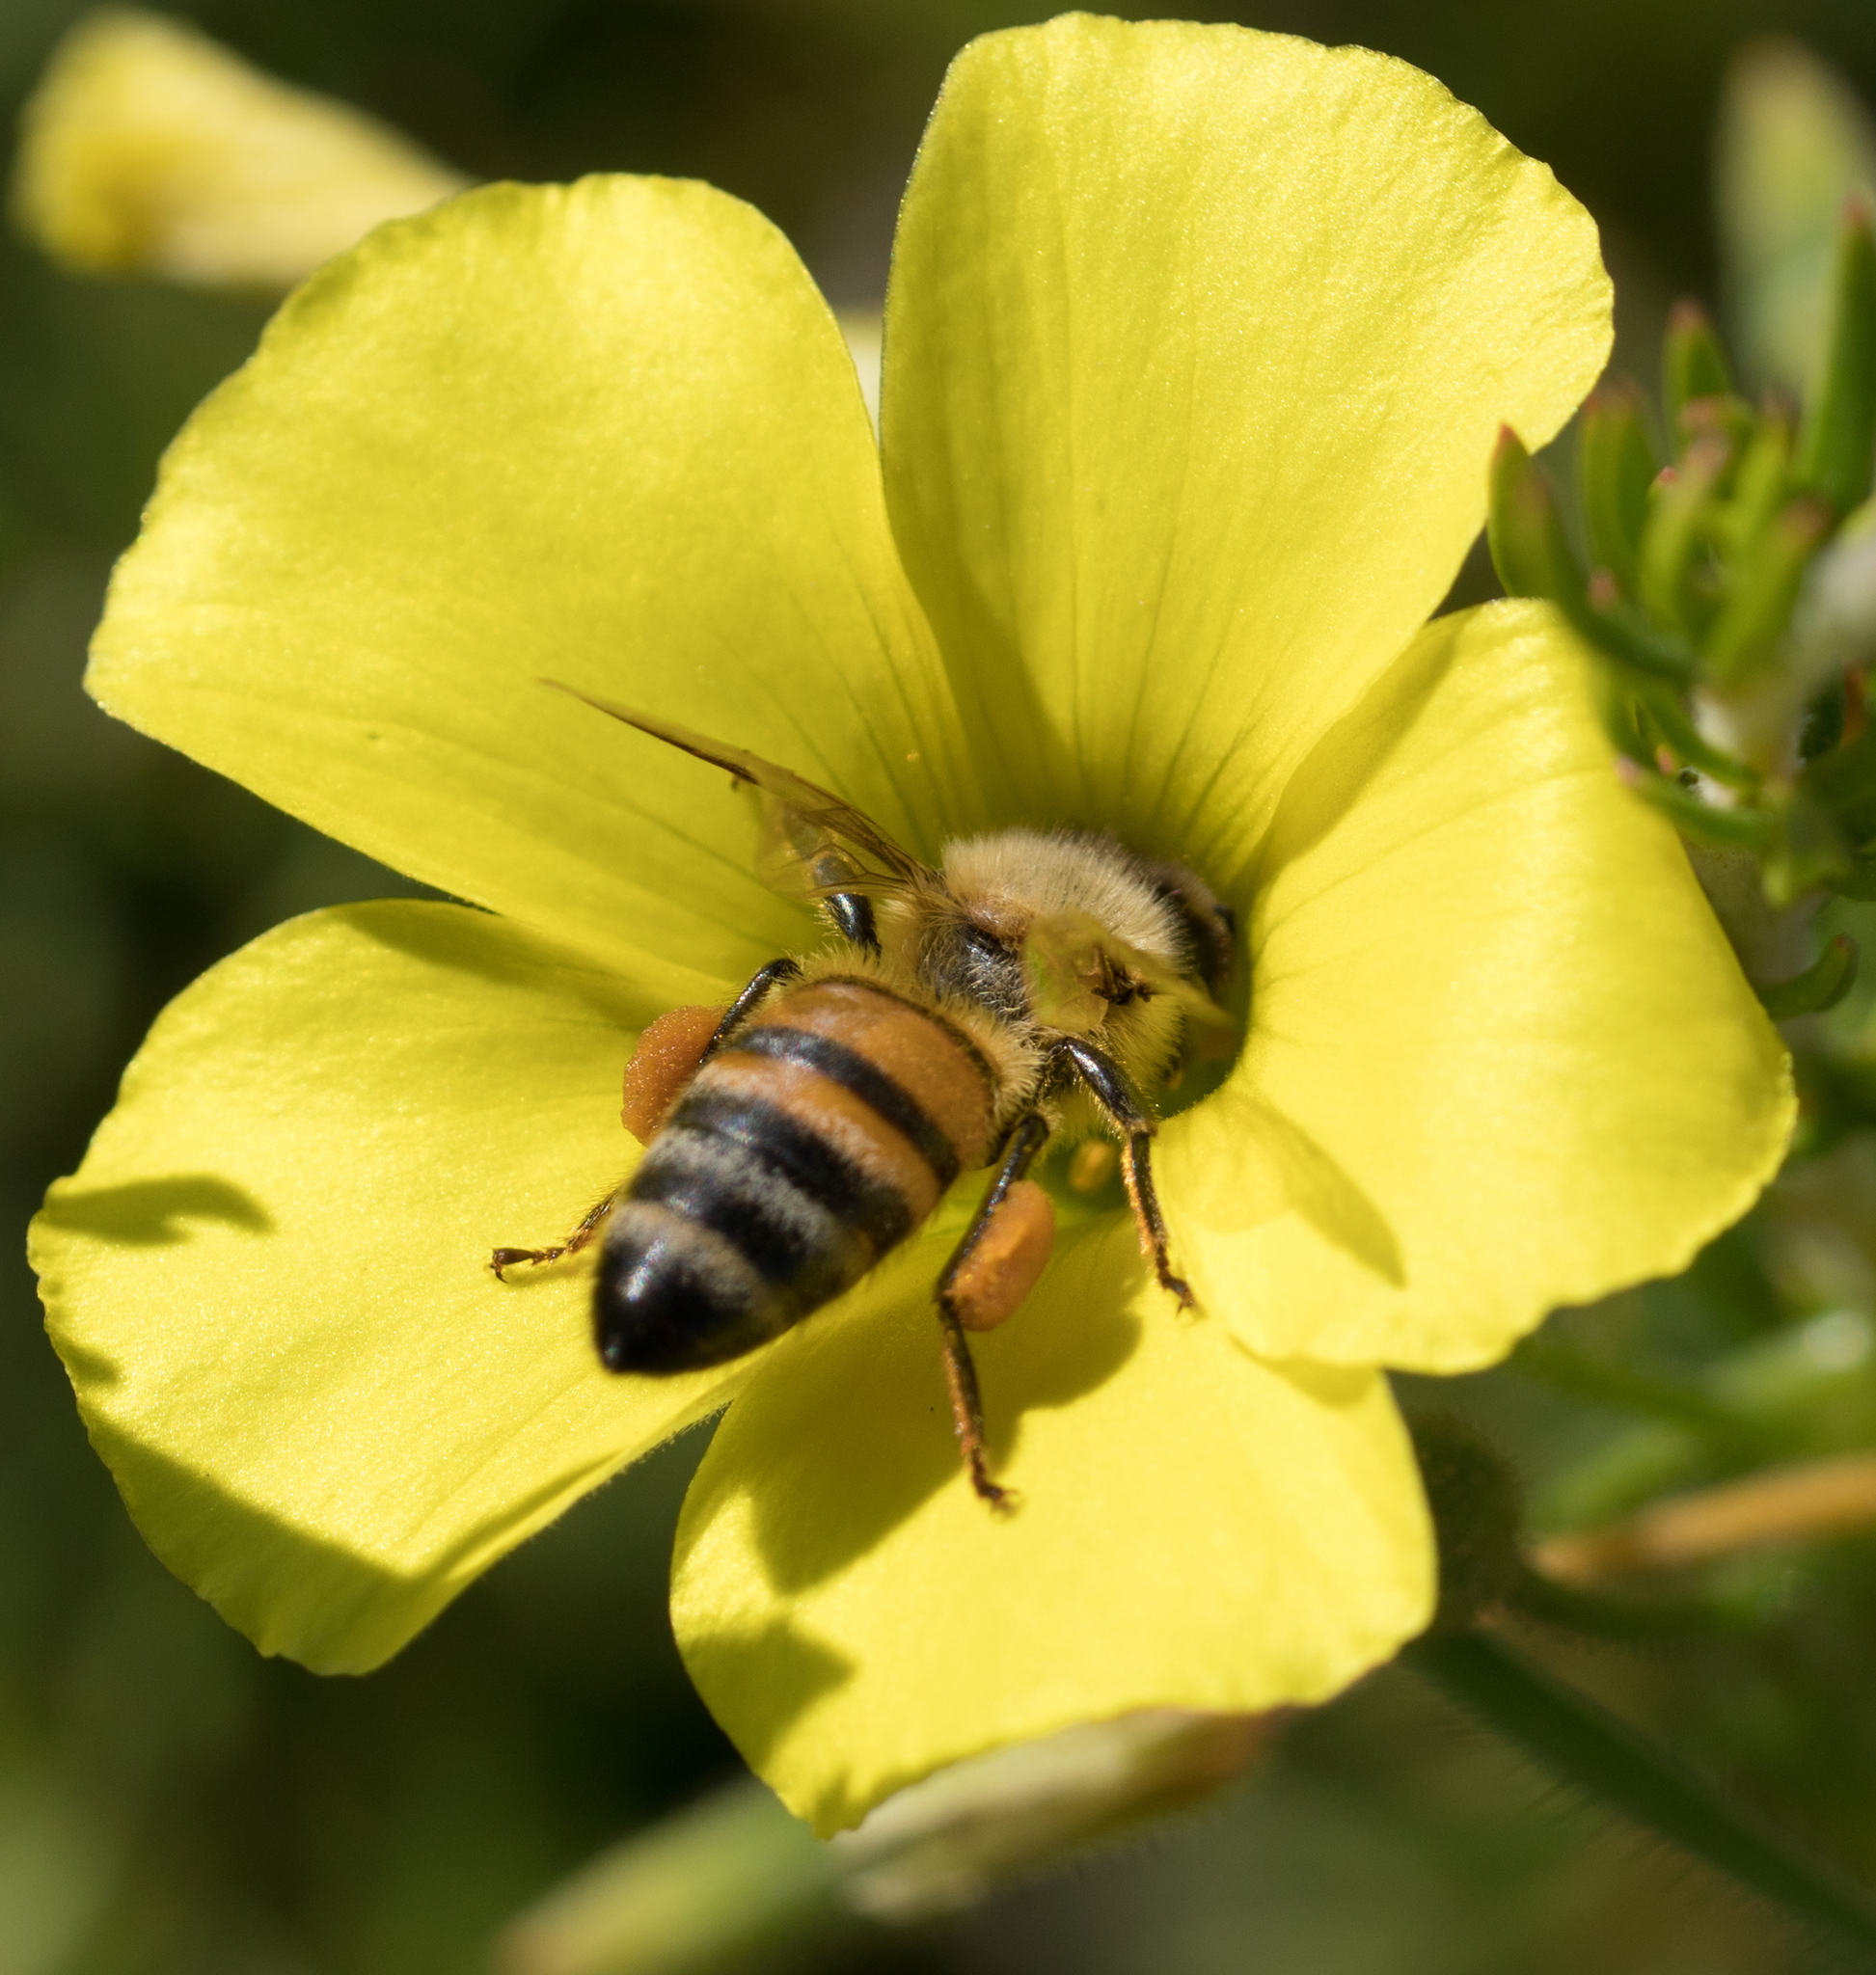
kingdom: Animalia
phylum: Arthropoda
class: Insecta
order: Hymenoptera
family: Apidae
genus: Apis
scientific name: Apis mellifera
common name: Honey bee
